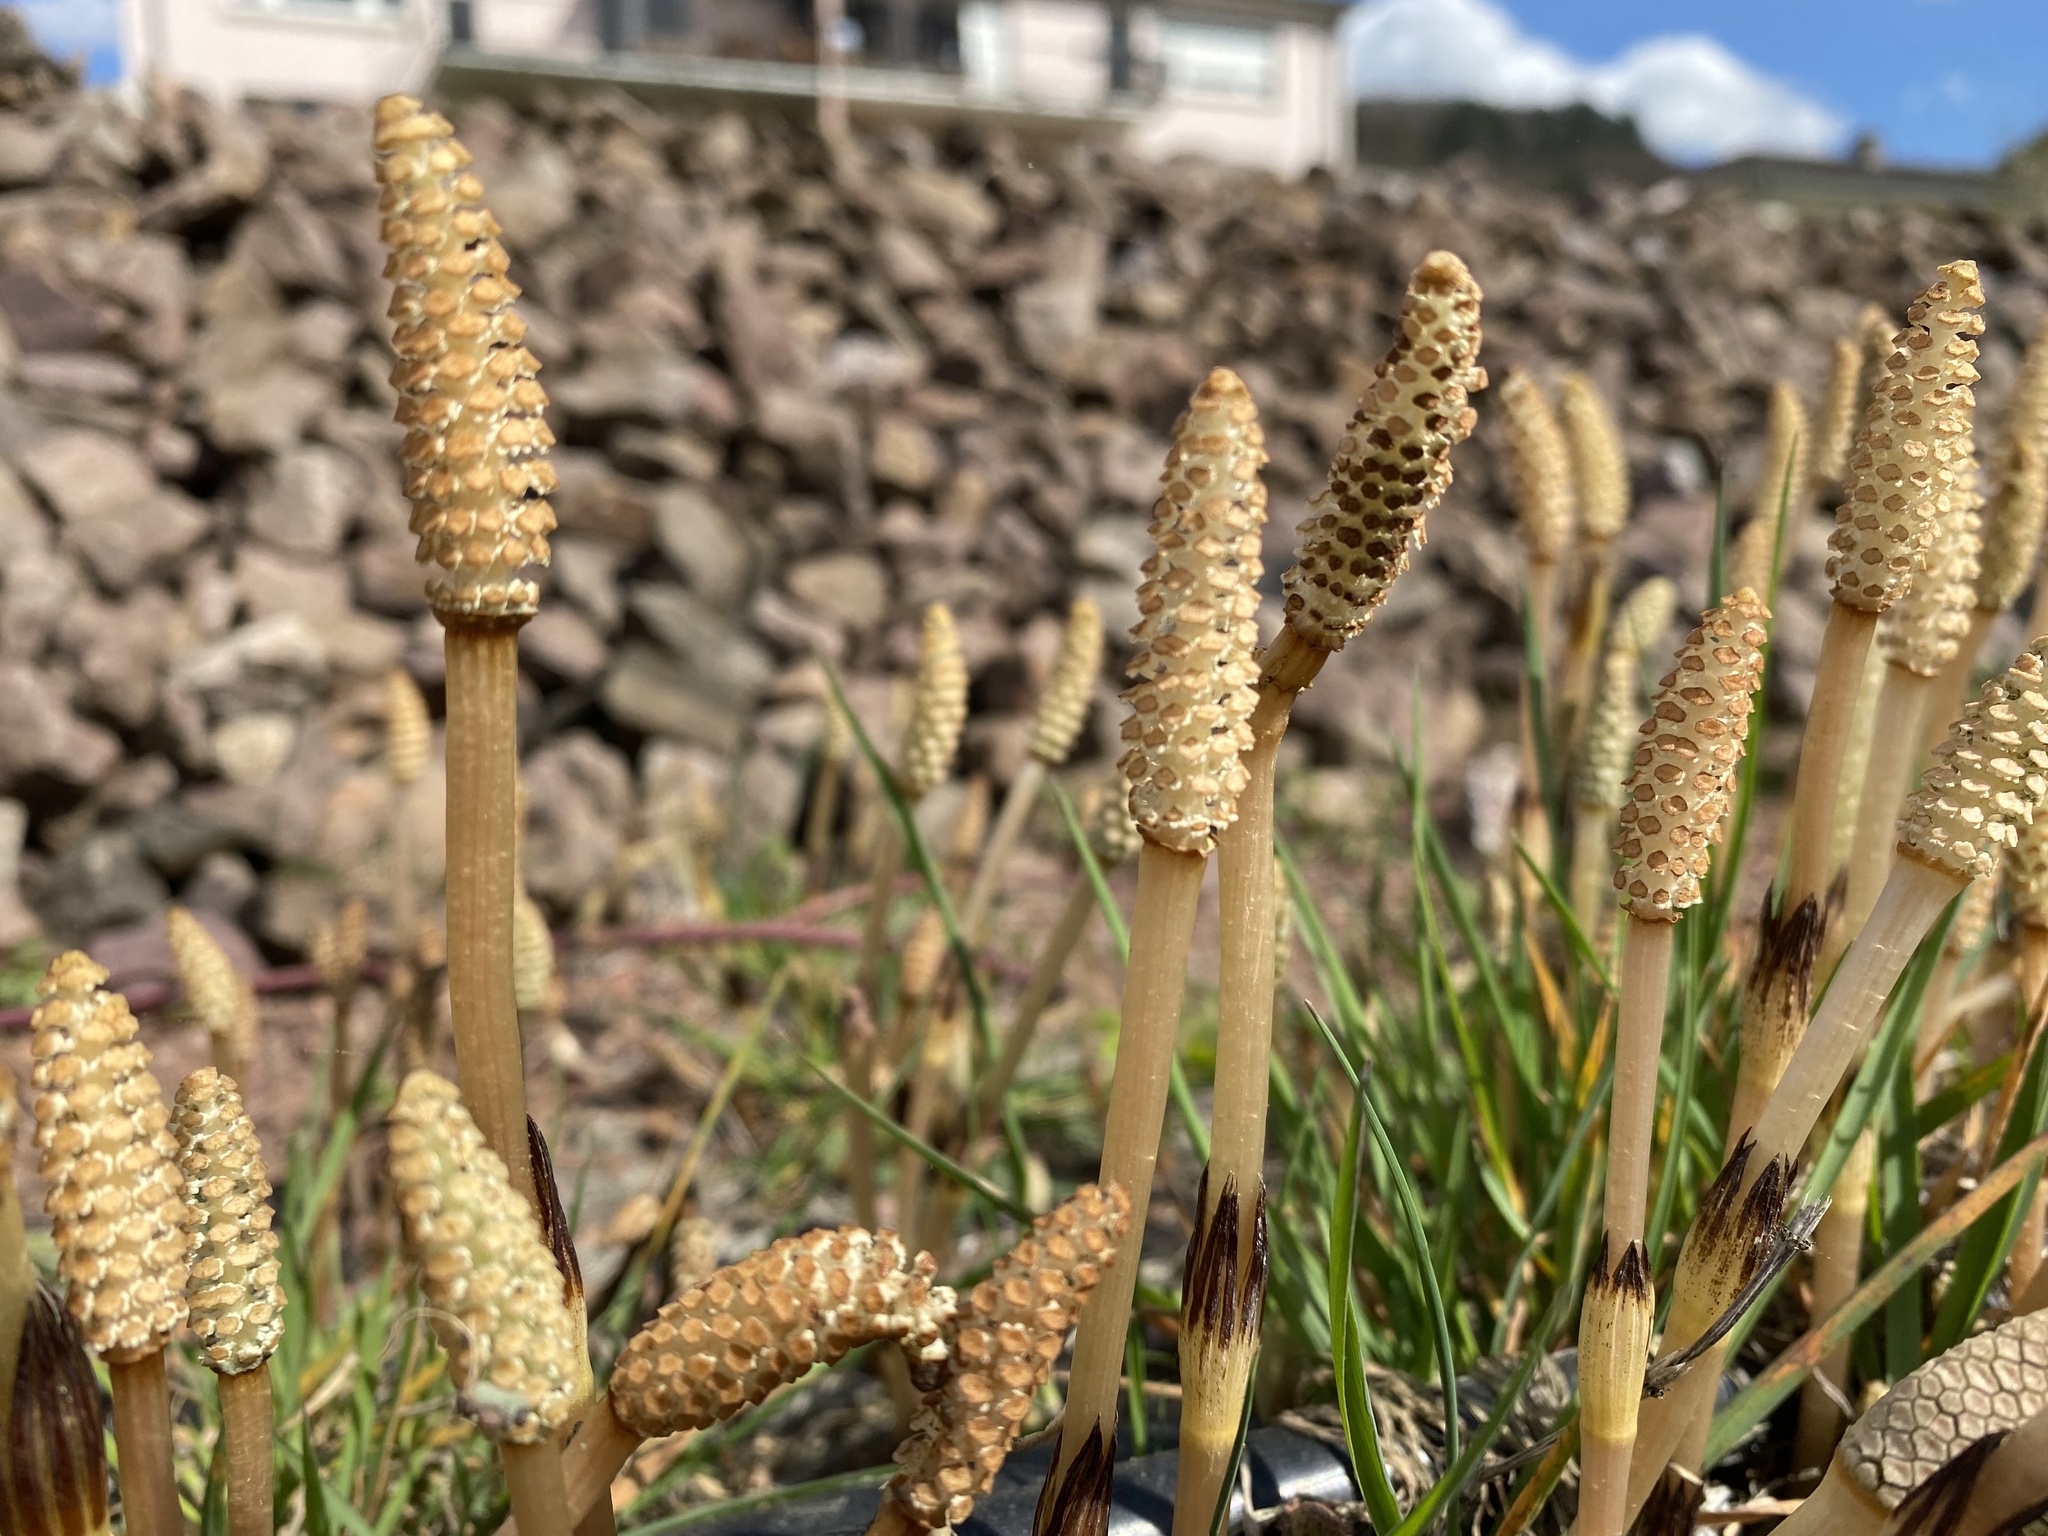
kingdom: Plantae
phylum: Tracheophyta
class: Polypodiopsida
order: Equisetales
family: Equisetaceae
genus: Equisetum
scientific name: Equisetum arvense
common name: Field horsetail
